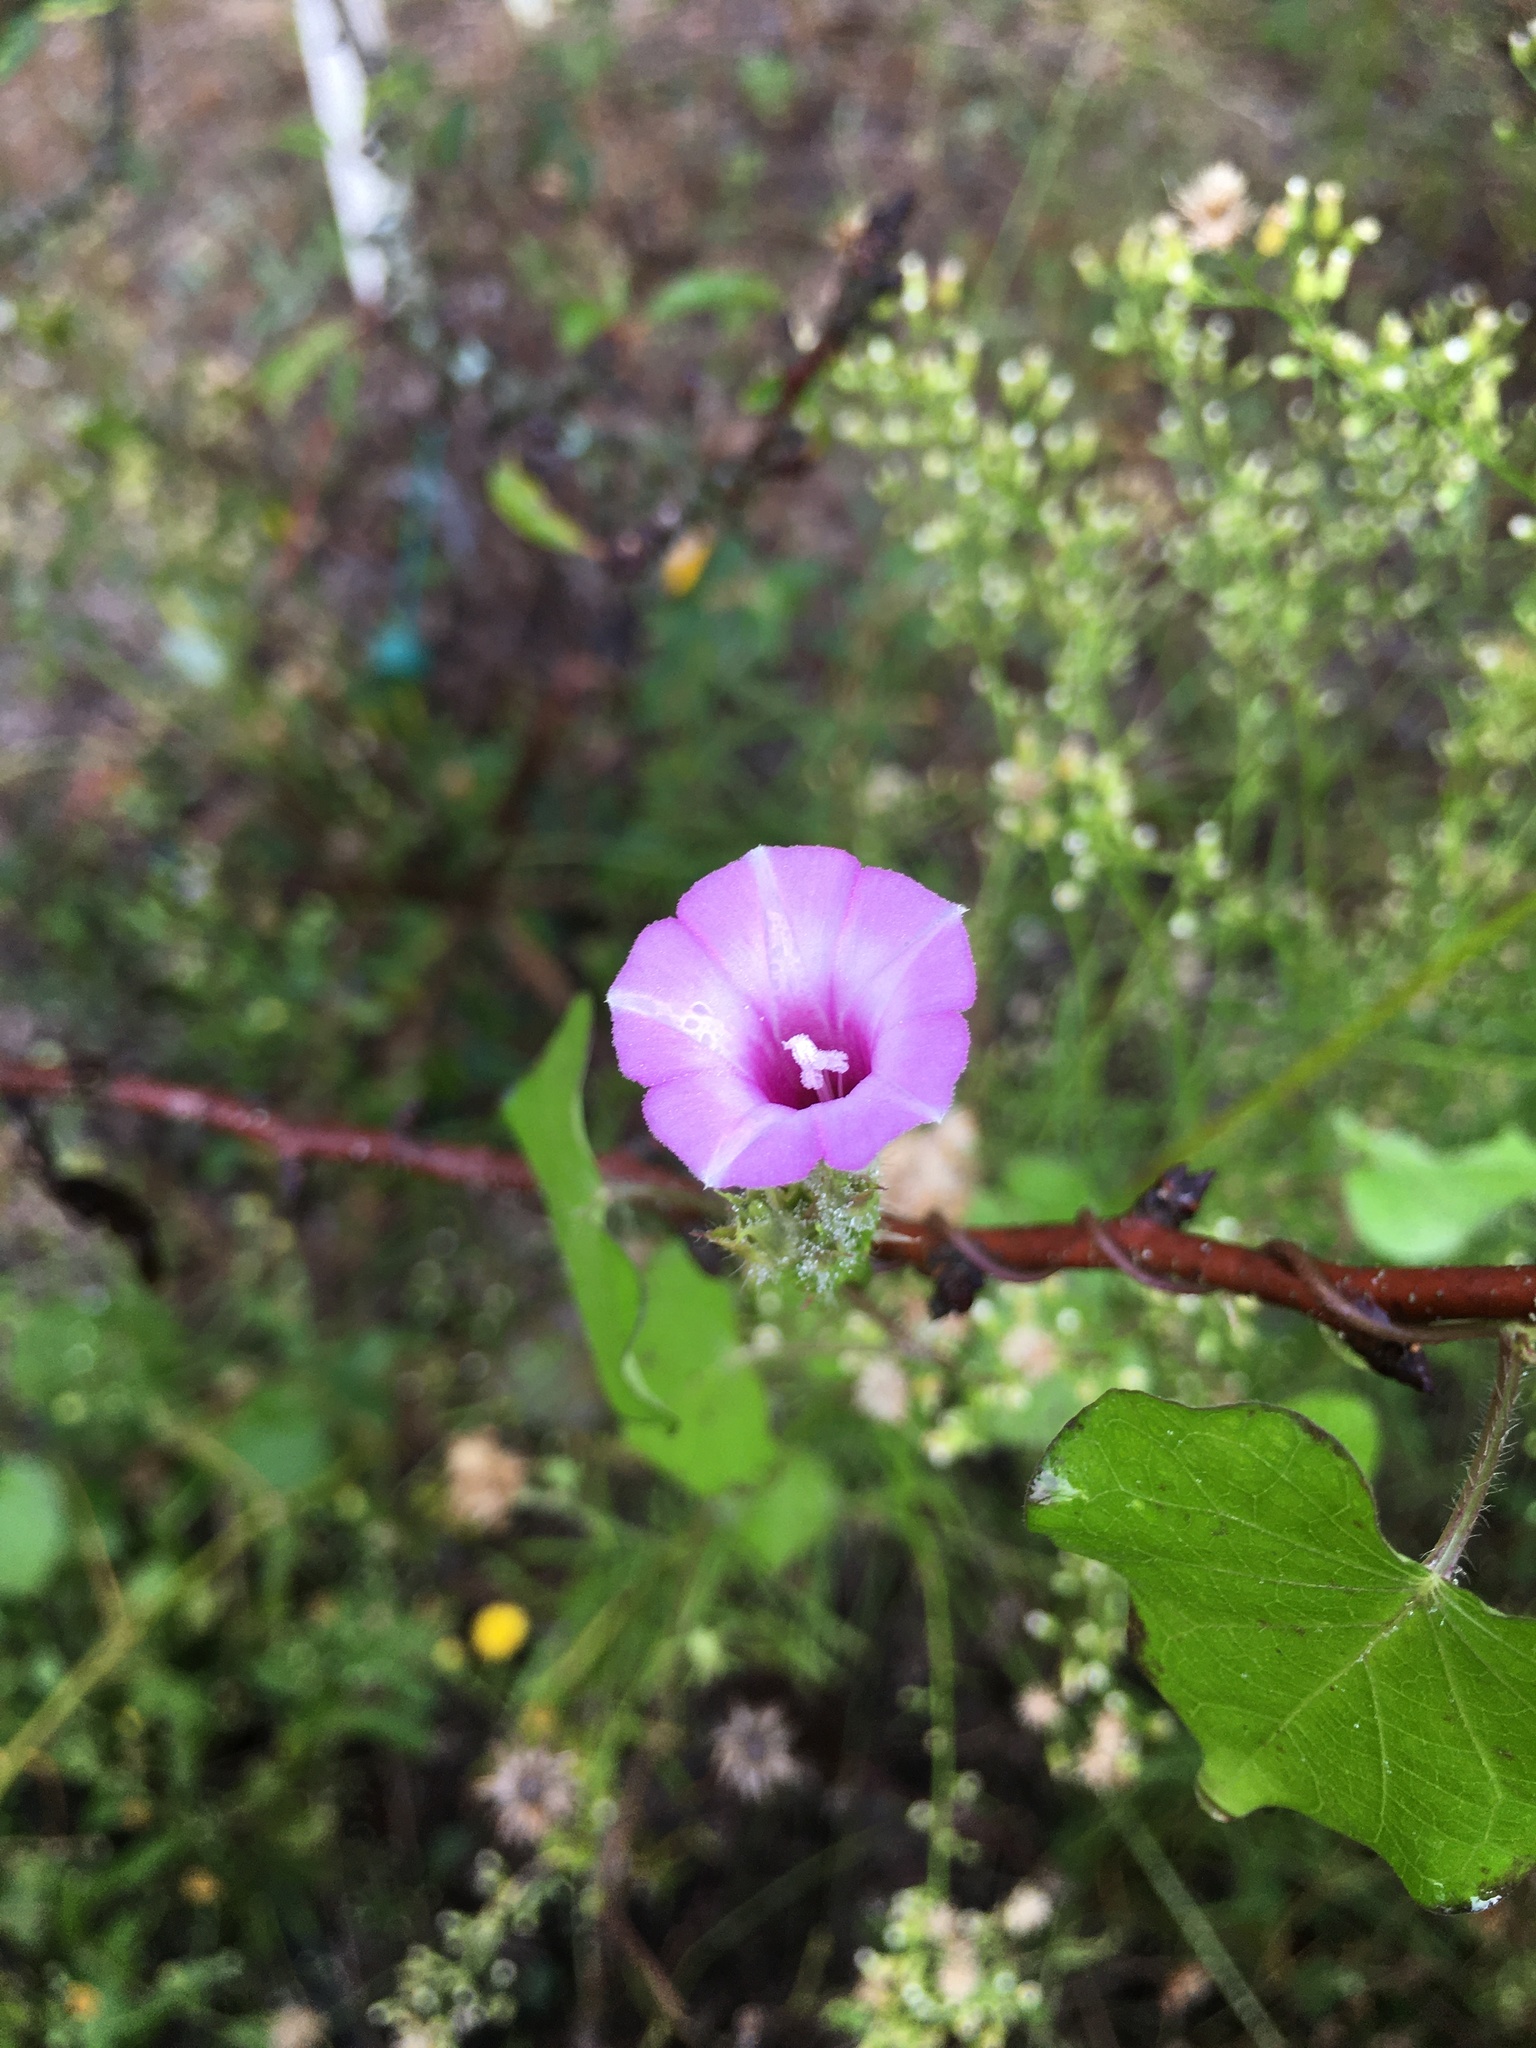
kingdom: Plantae
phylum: Tracheophyta
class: Magnoliopsida
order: Solanales
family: Convolvulaceae
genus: Ipomoea
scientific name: Ipomoea triloba
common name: Little-bell
